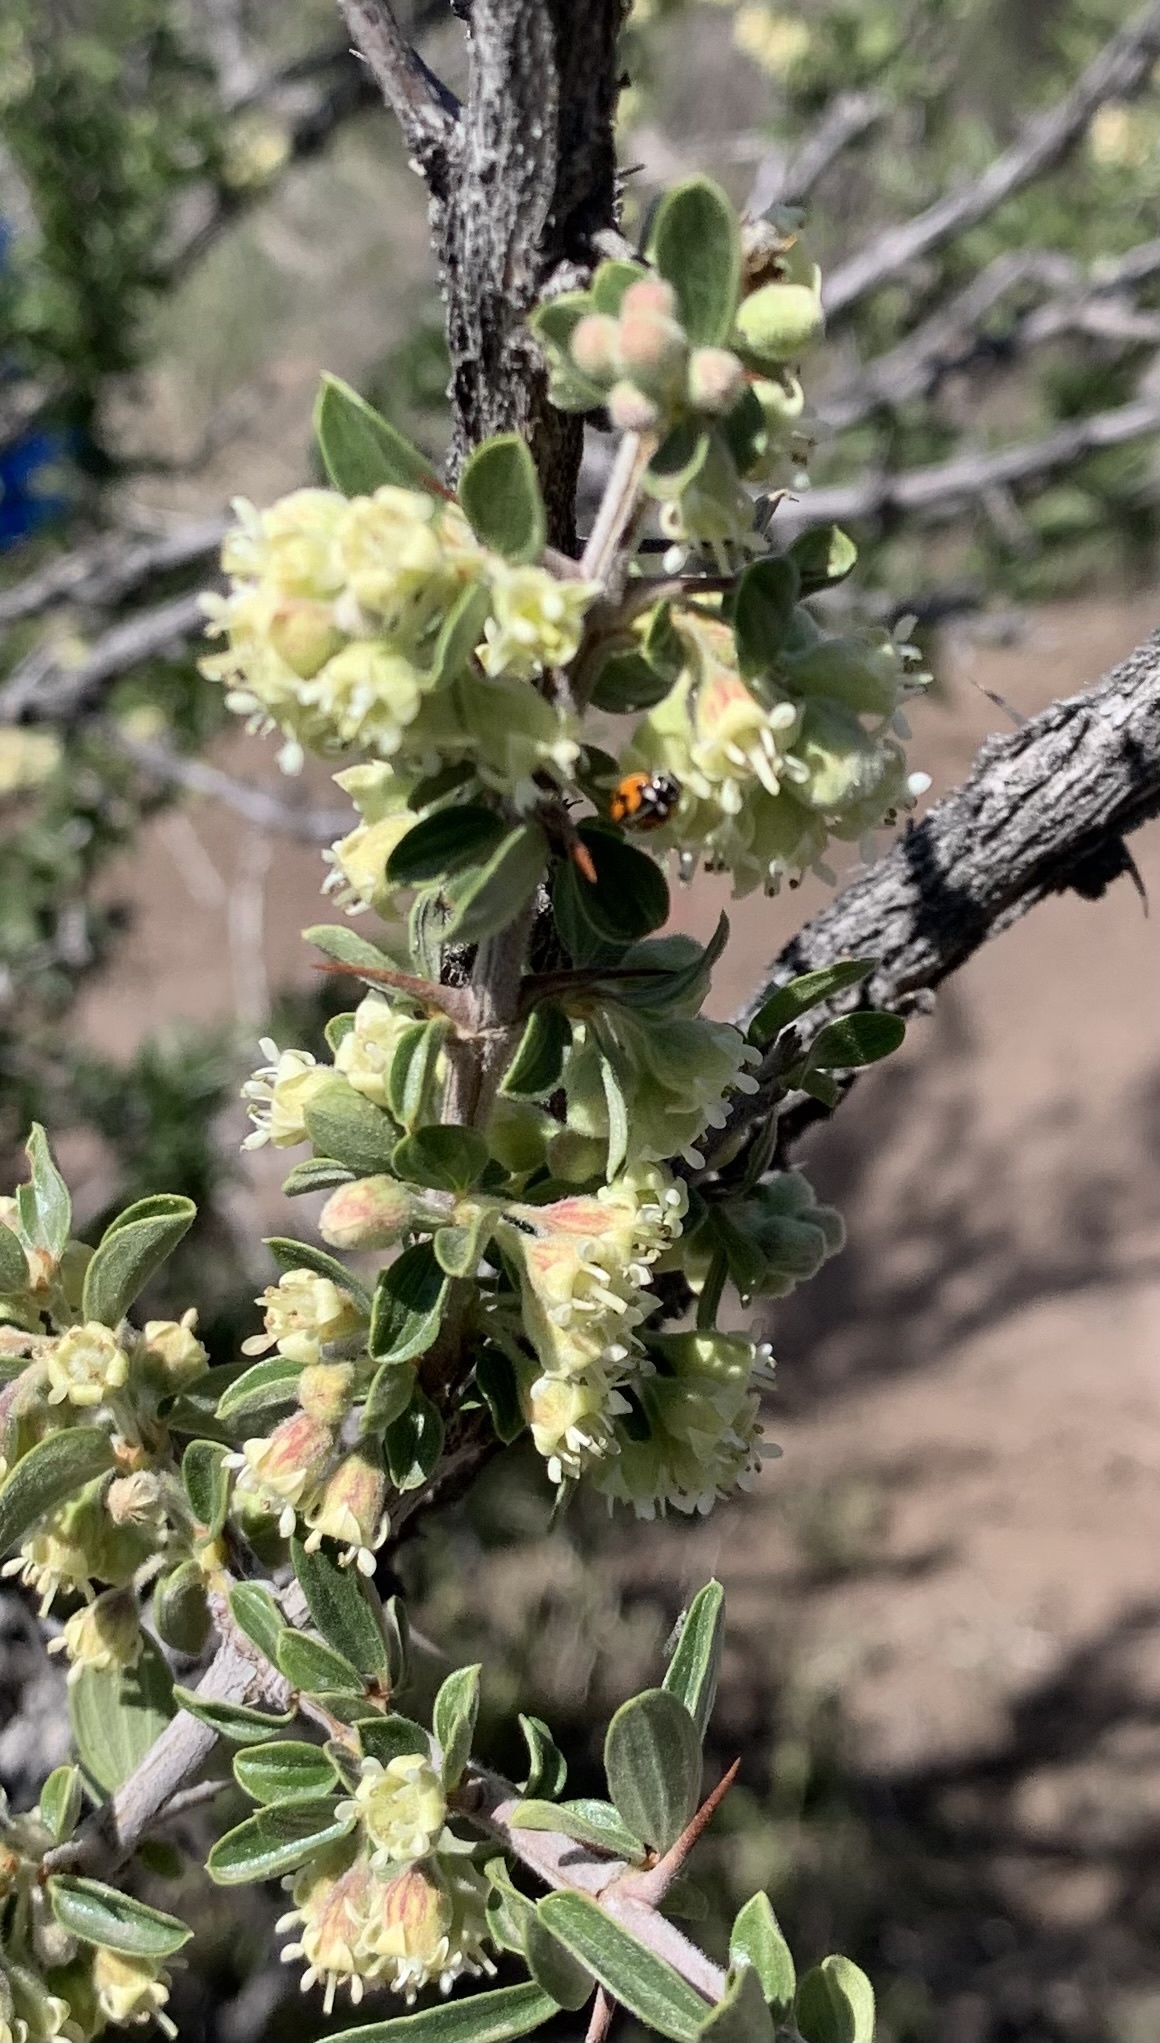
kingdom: Animalia
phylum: Arthropoda
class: Insecta
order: Coleoptera
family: Coccinellidae
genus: Adalia
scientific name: Adalia angulifera
